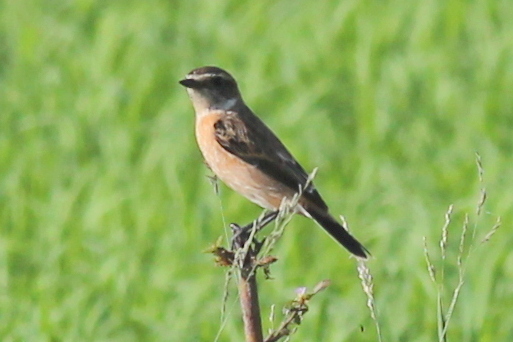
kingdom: Animalia
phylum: Chordata
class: Aves
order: Passeriformes
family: Muscicapidae
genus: Saxicola
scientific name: Saxicola stejnegeri
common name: Stejneger's stonechat
